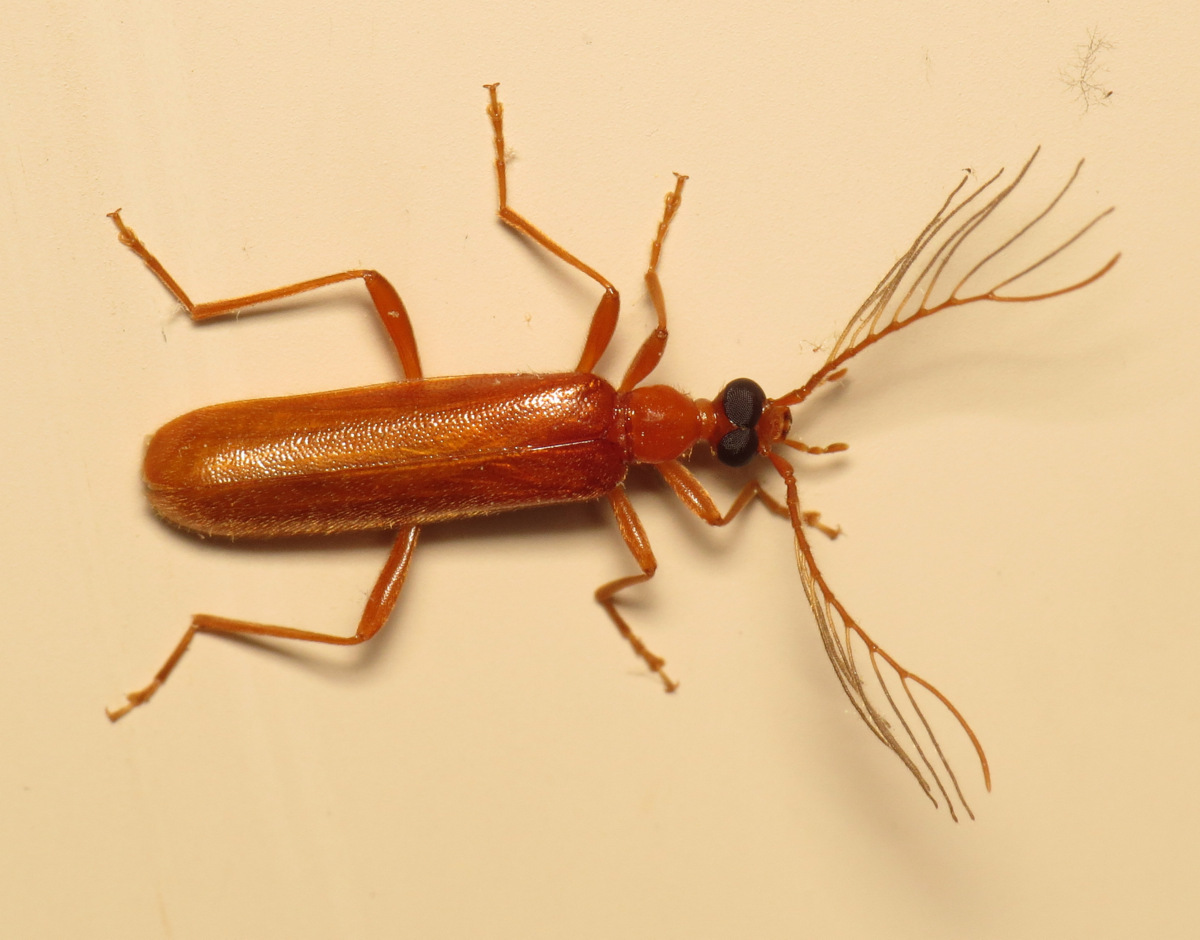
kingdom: Animalia
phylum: Arthropoda
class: Insecta
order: Coleoptera
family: Pyrochroidae
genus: Dendroides
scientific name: Dendroides concolor
